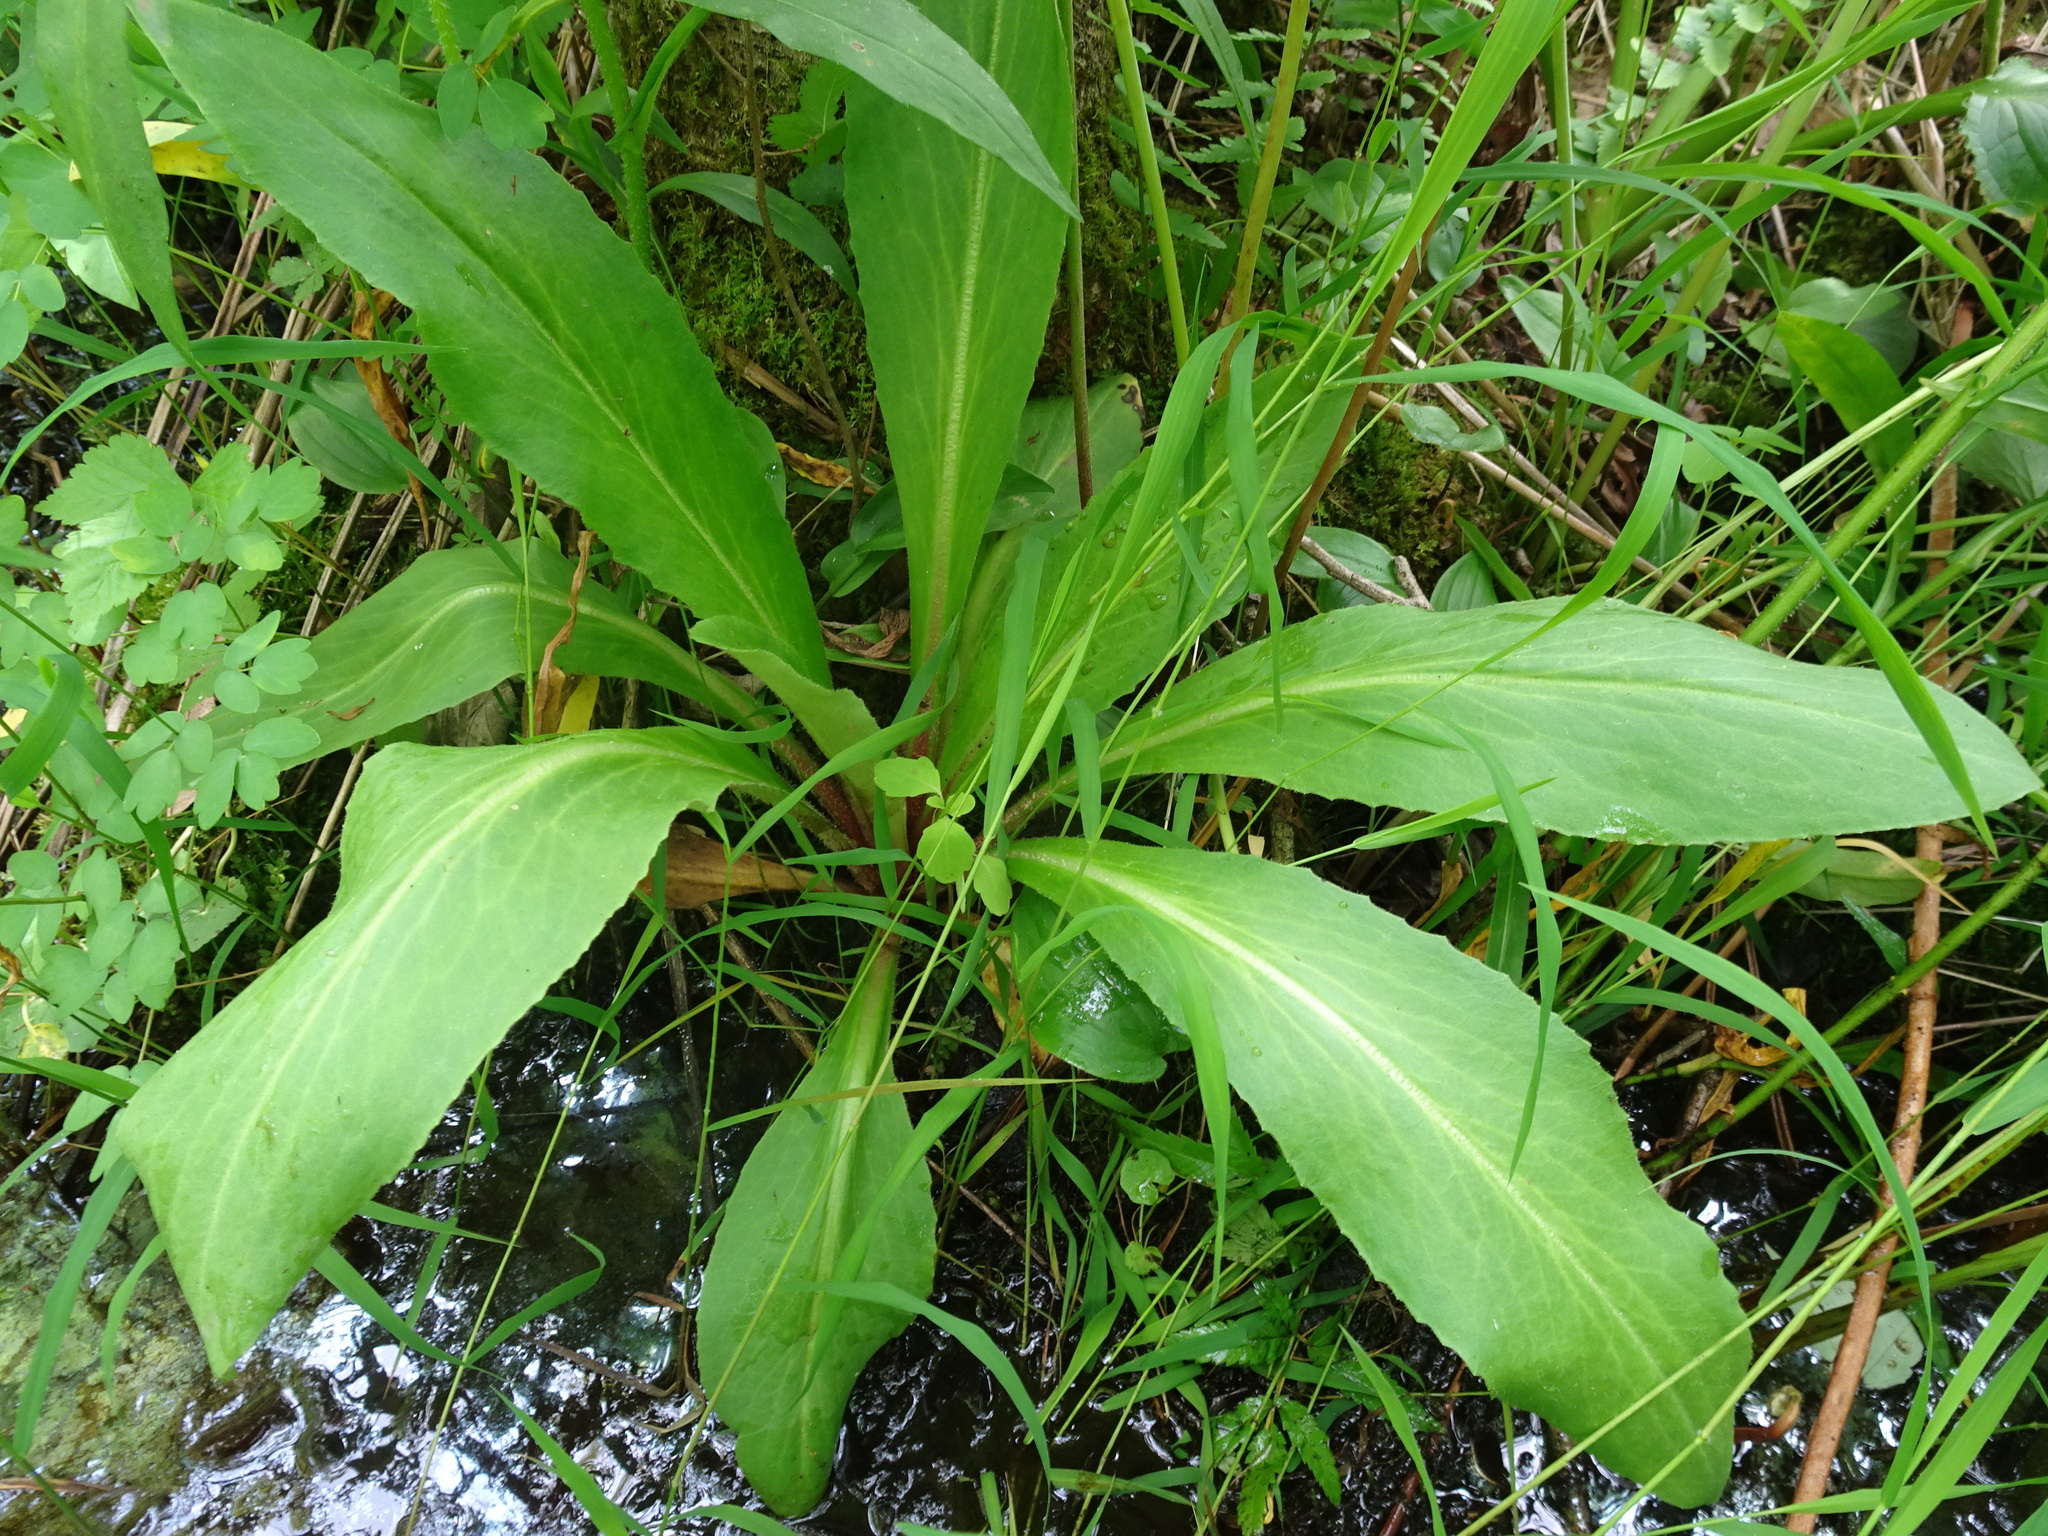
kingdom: Plantae
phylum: Tracheophyta
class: Magnoliopsida
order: Saxifragales
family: Saxifragaceae
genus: Micranthes
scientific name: Micranthes pensylvanica
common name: Marsh saxifrage
